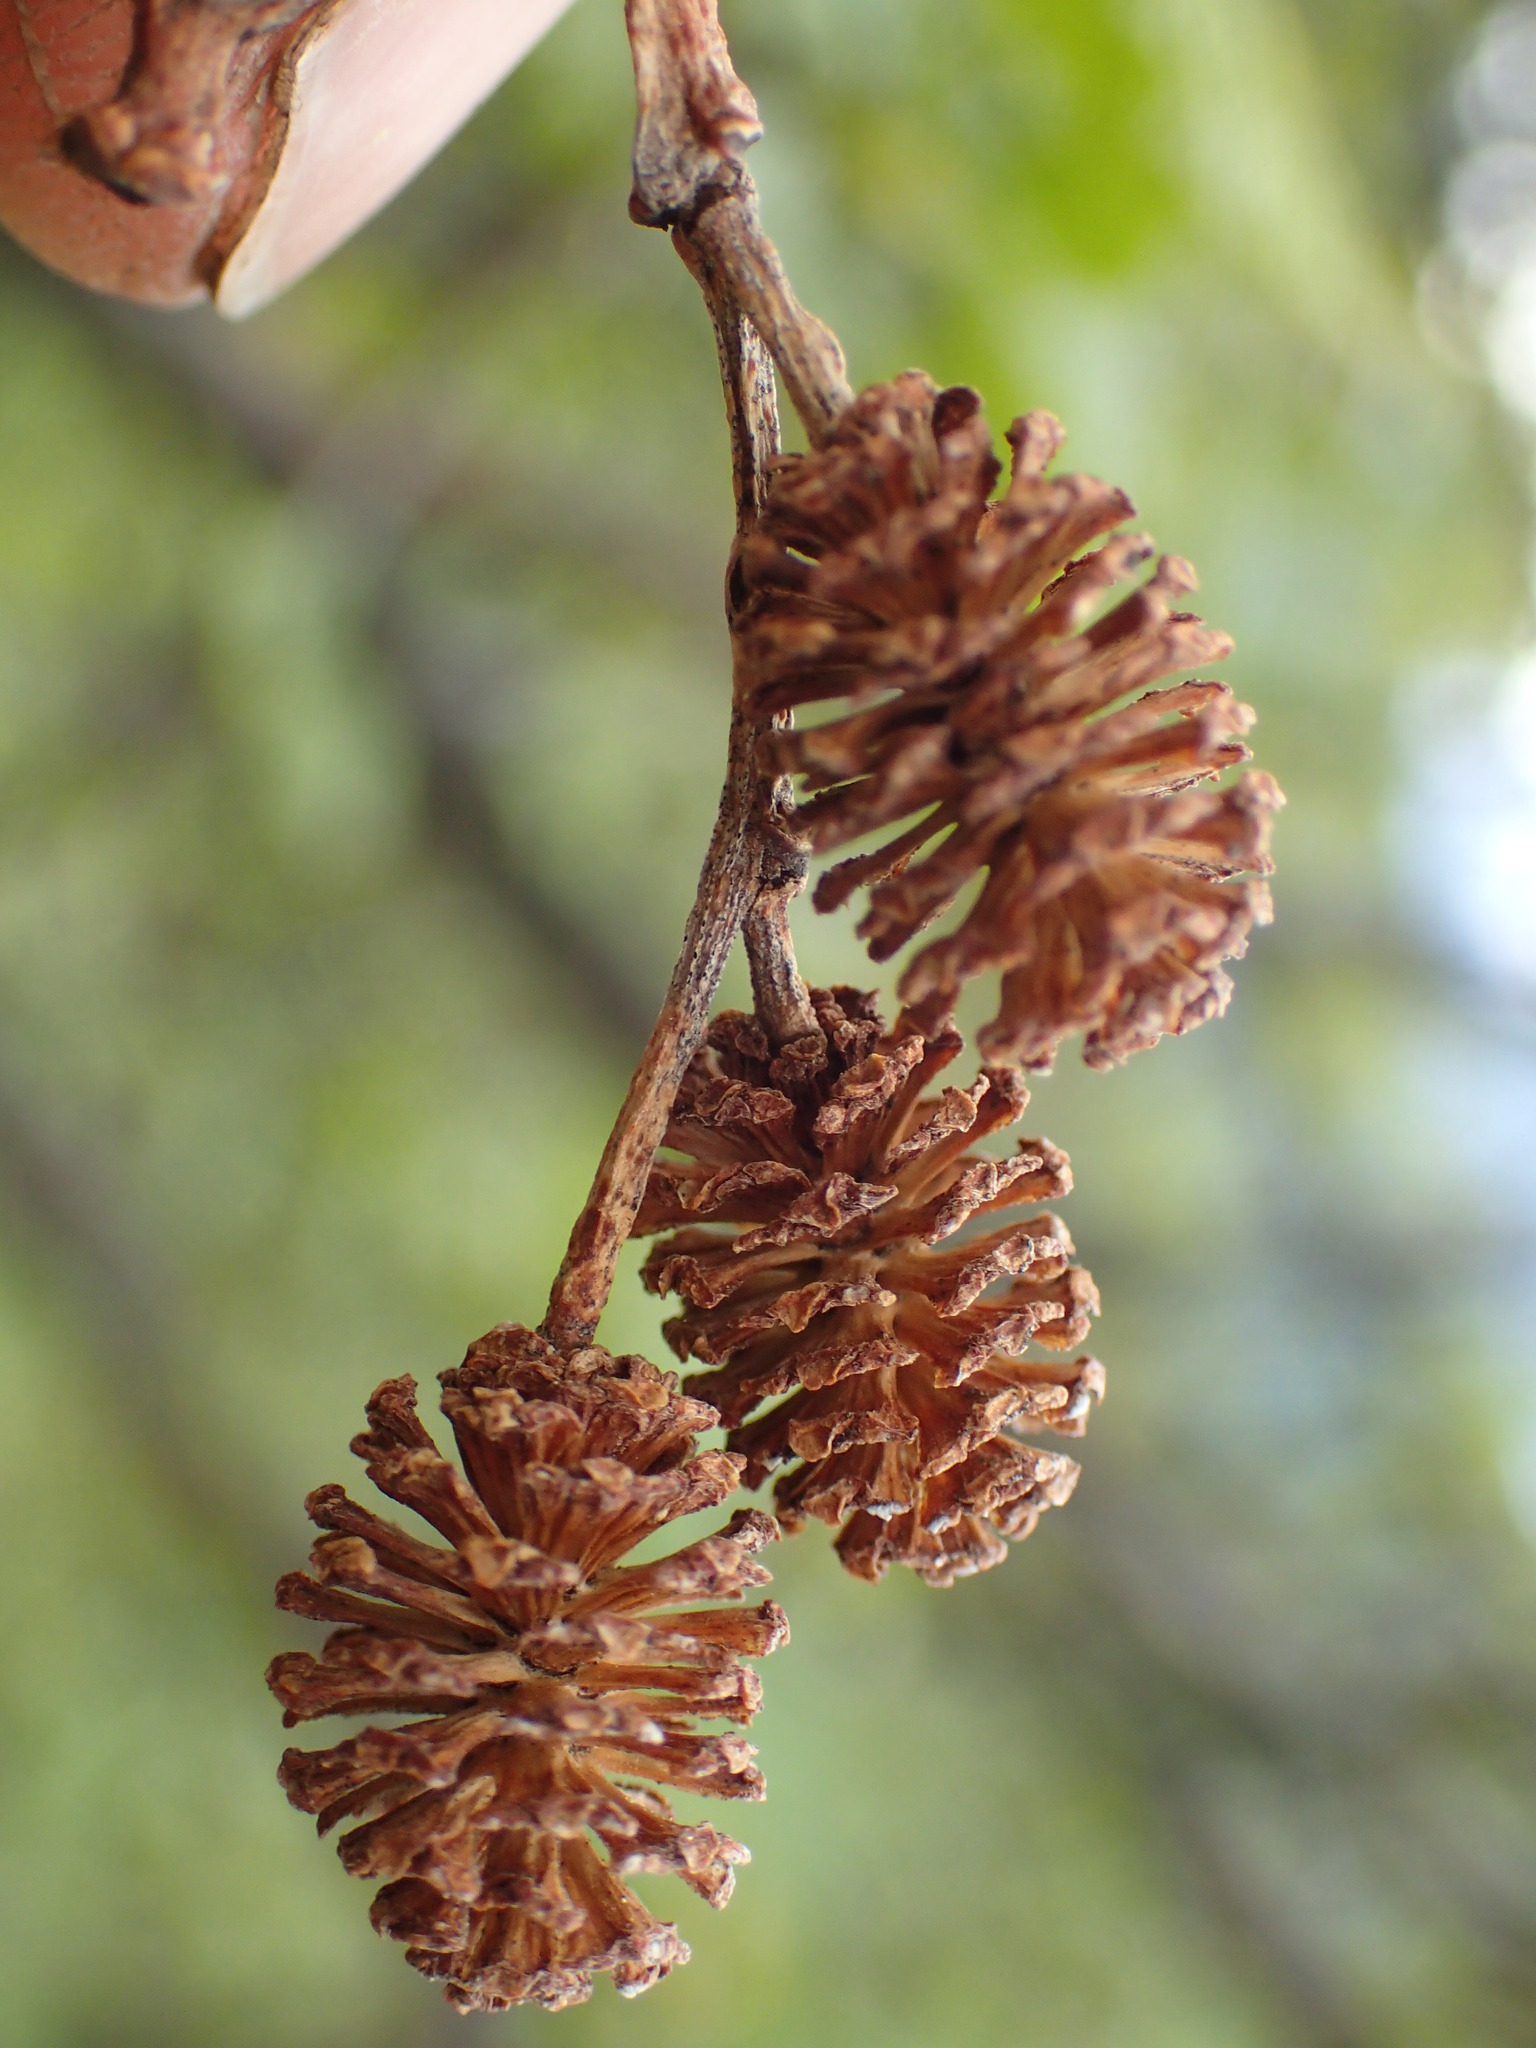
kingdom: Plantae
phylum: Tracheophyta
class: Magnoliopsida
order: Fagales
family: Betulaceae
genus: Alnus
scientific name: Alnus alnobetula
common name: Green alder
